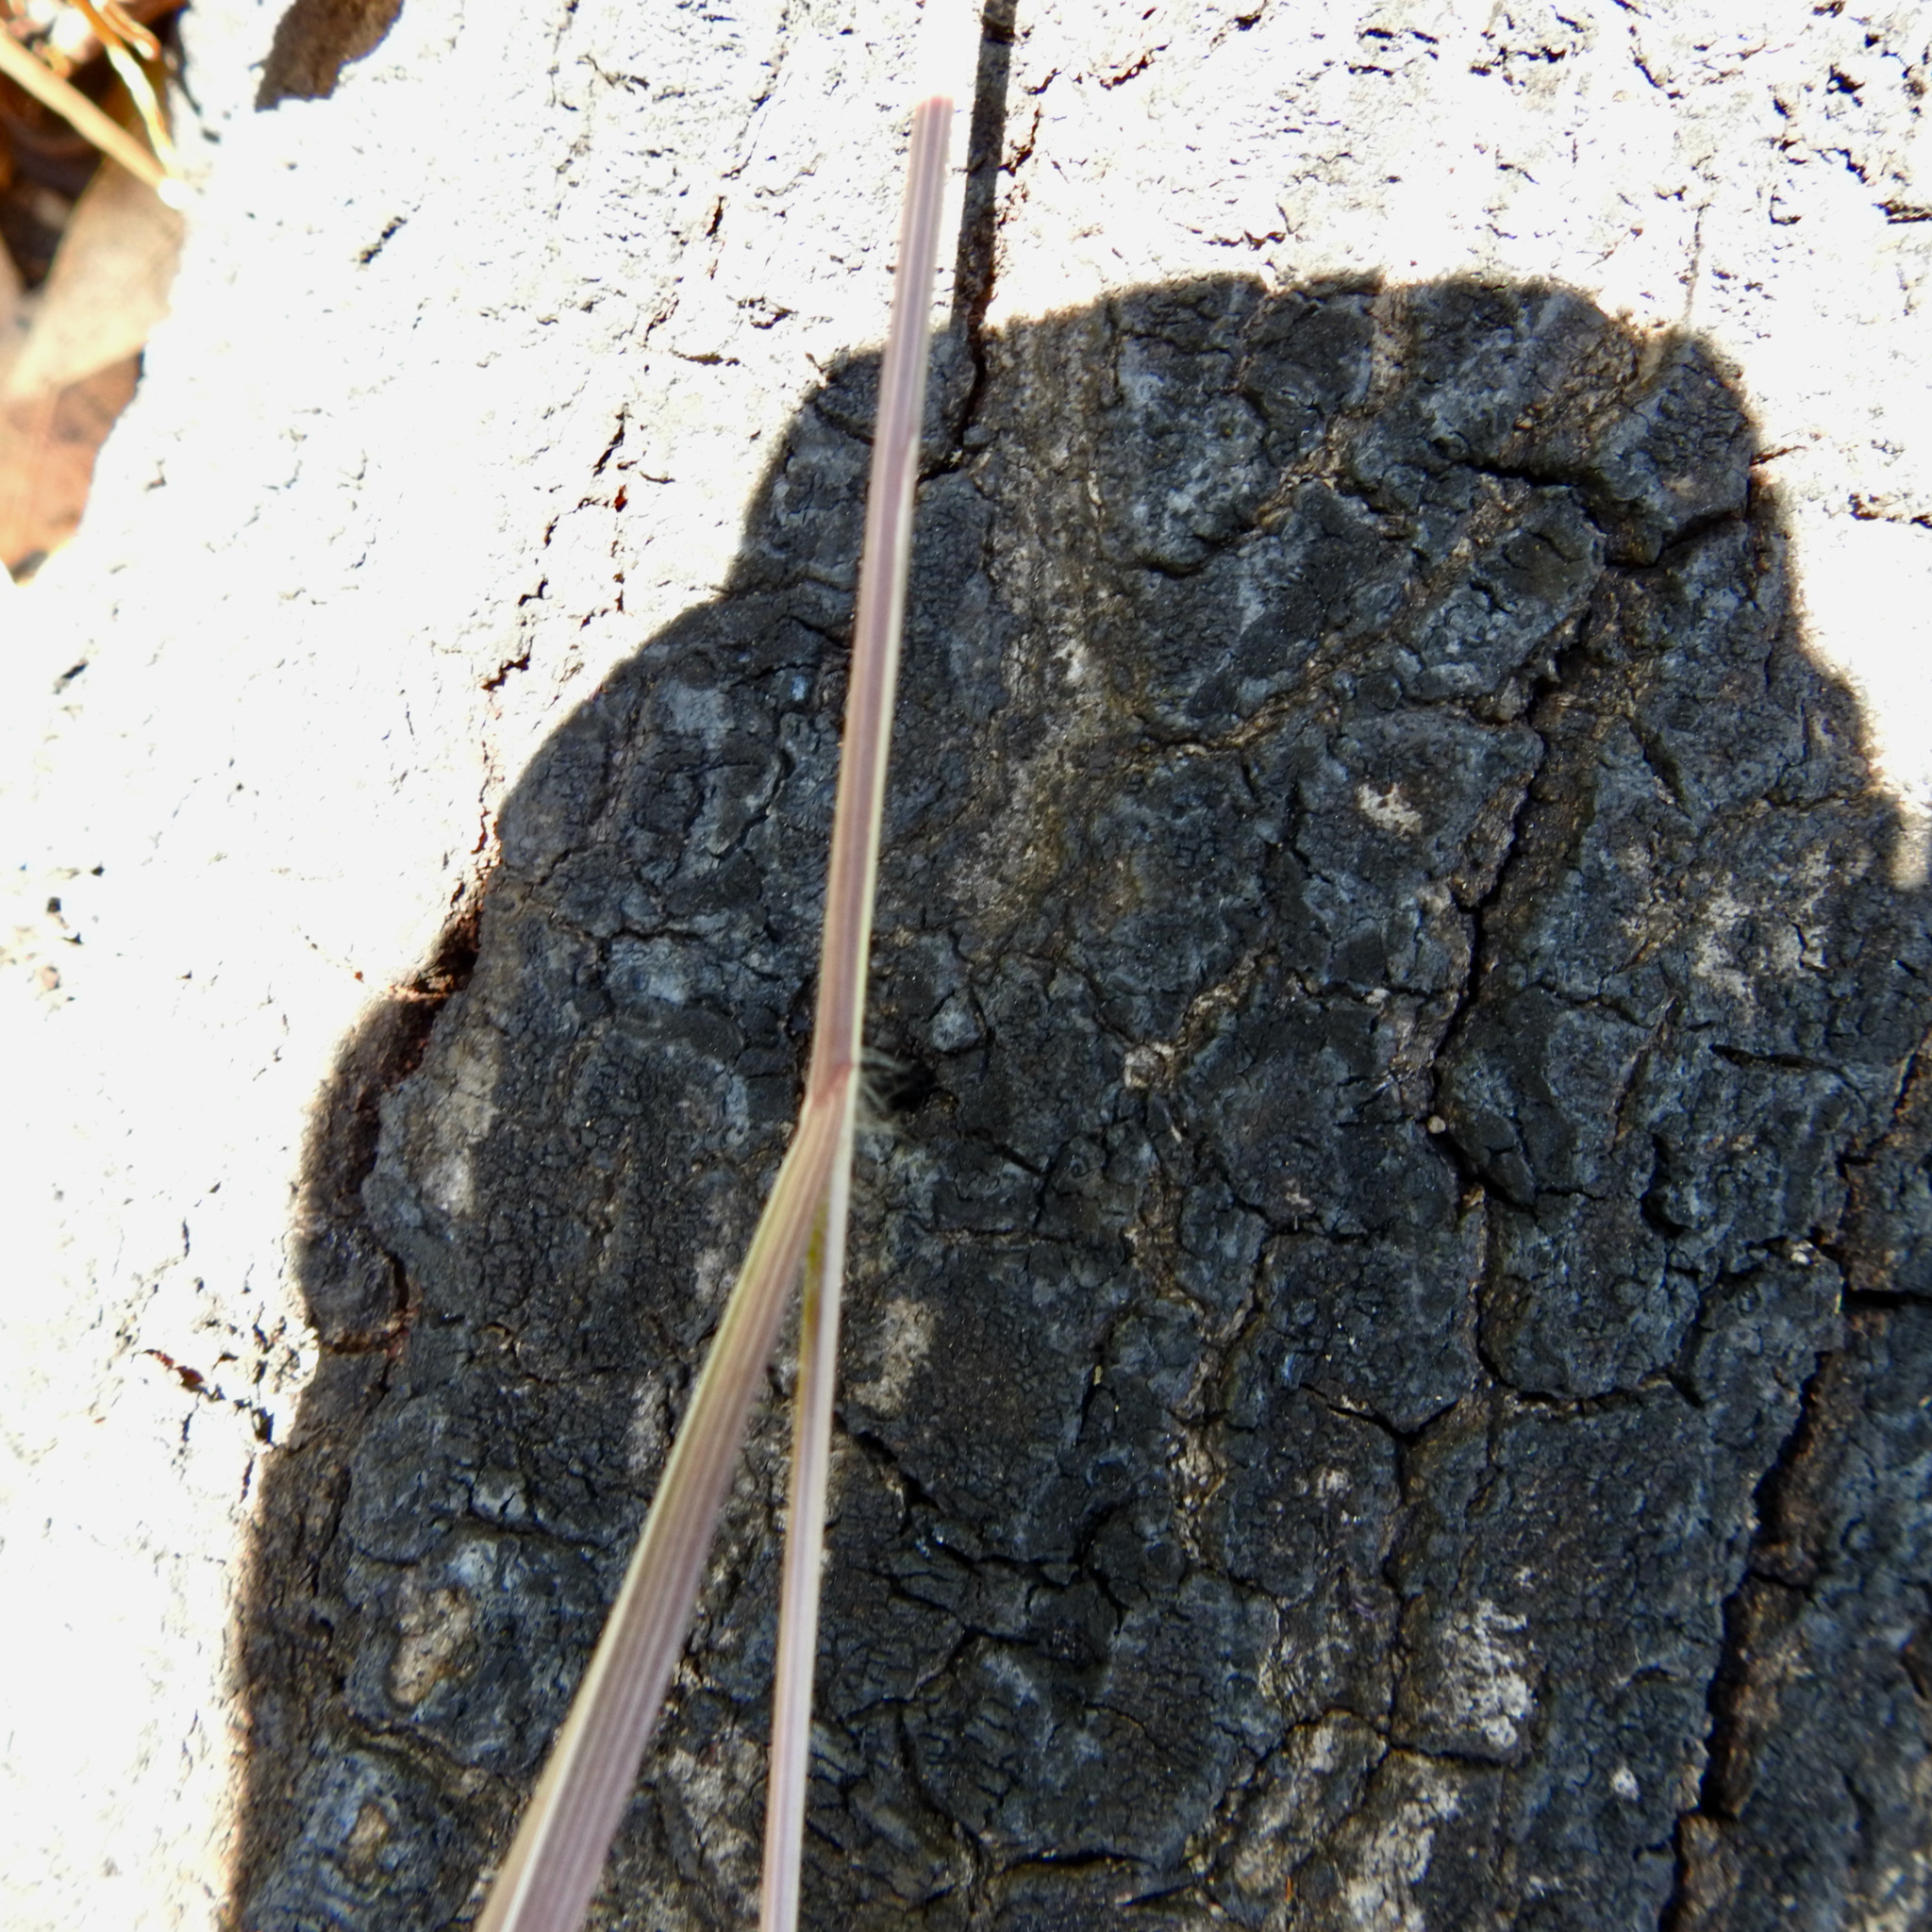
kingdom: Plantae
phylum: Tracheophyta
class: Liliopsida
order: Poales
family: Poaceae
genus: Bromus
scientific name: Bromus diandrus
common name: Ripgut brome
